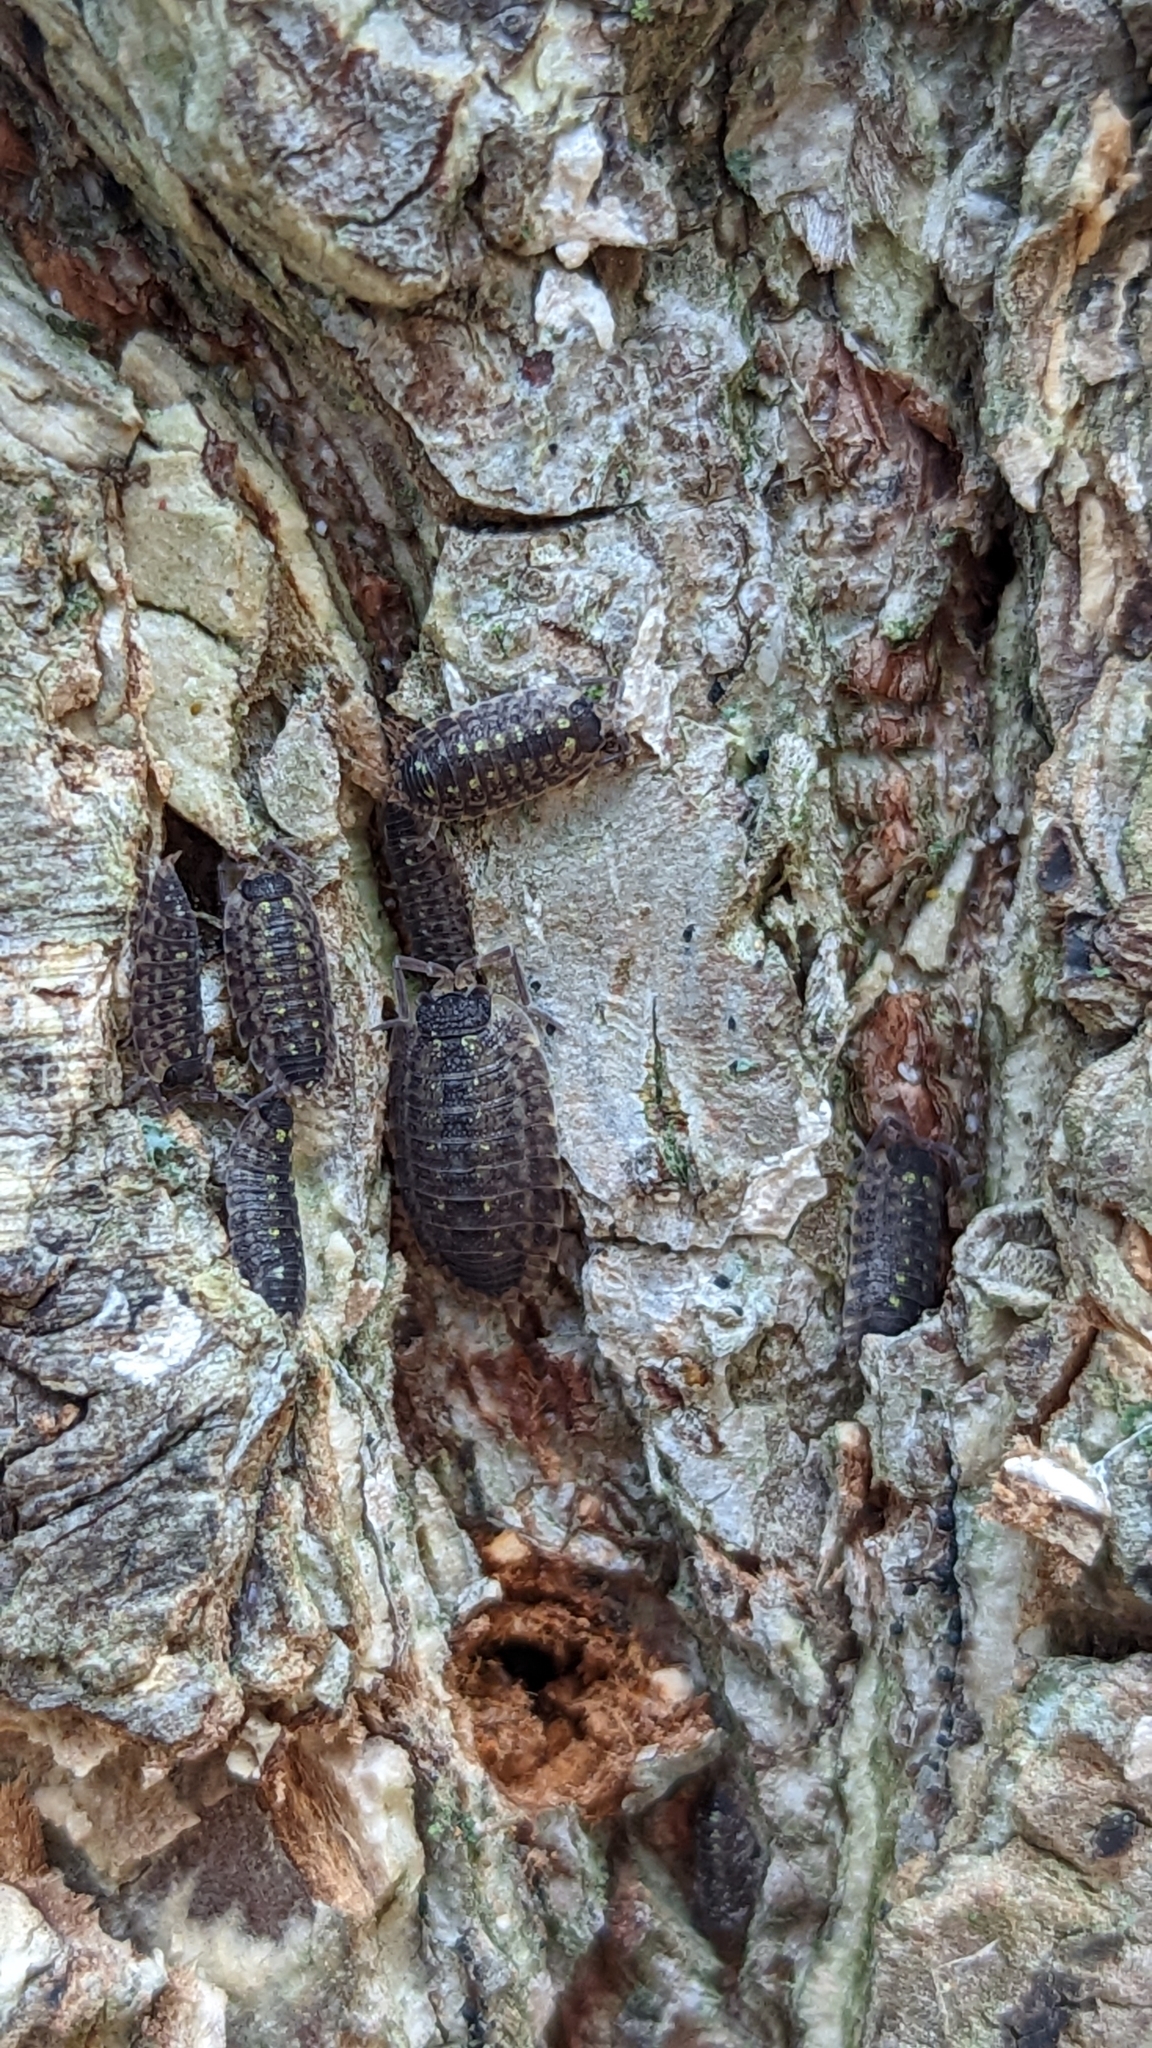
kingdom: Animalia
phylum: Arthropoda
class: Malacostraca
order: Isopoda
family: Porcellionidae
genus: Porcellio
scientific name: Porcellio spinicornis
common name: Painted woodlouse
